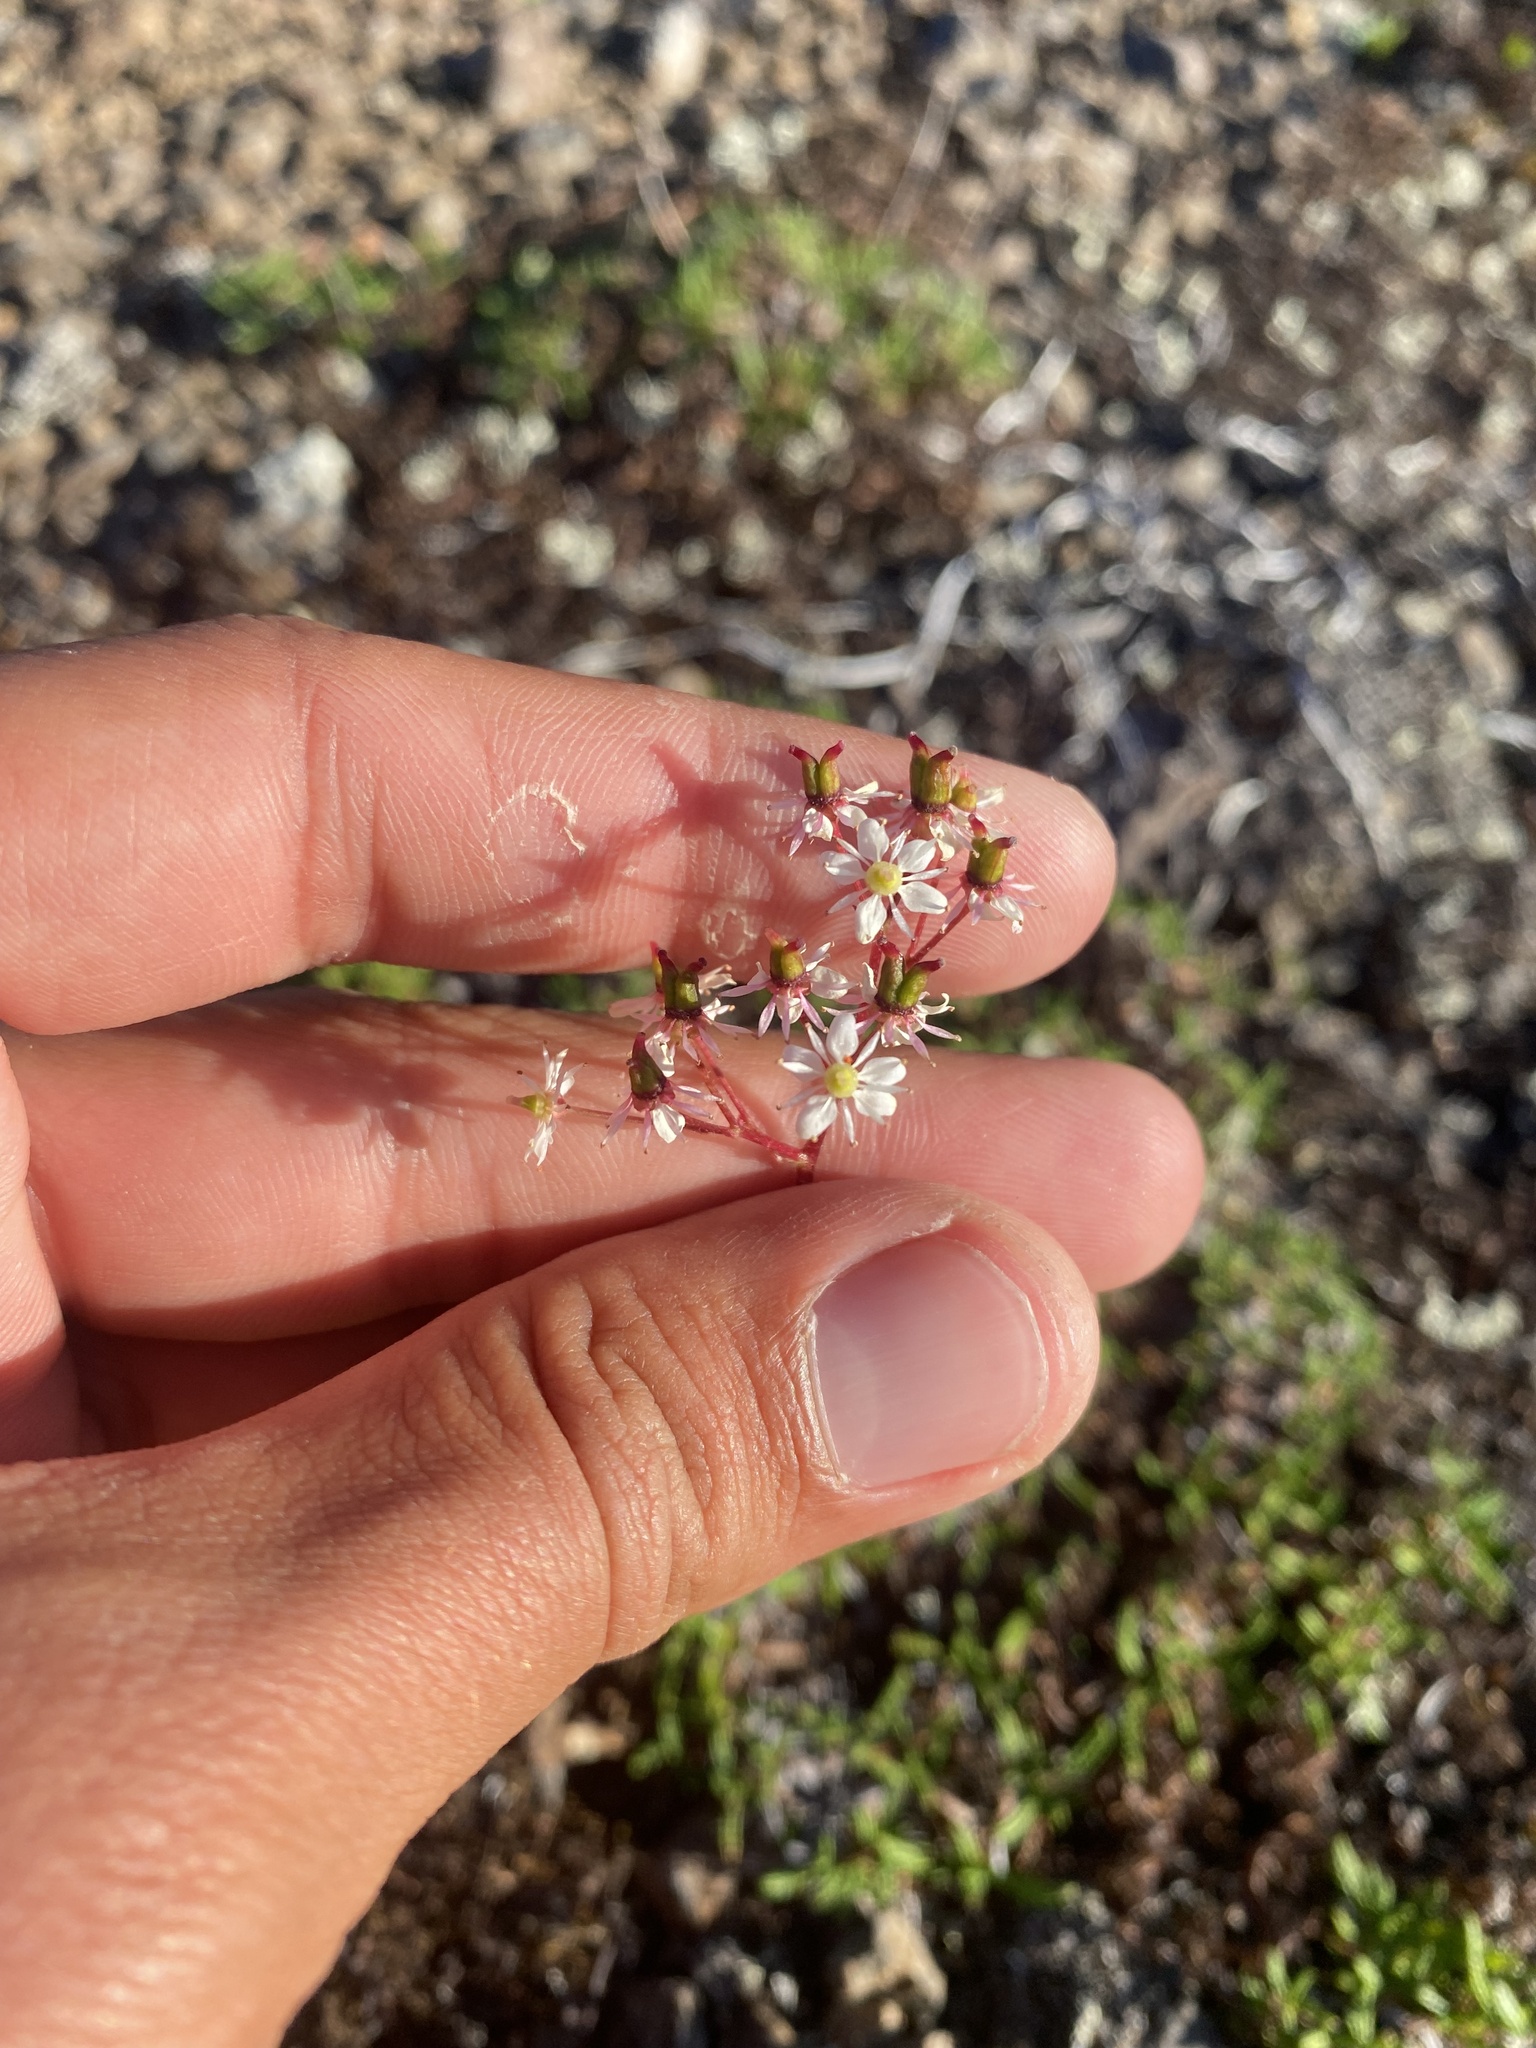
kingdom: Plantae
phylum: Tracheophyta
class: Magnoliopsida
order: Saxifragales
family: Saxifragaceae
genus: Micranthes
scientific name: Micranthes nelsoniana
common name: Nelson's saxifrage
